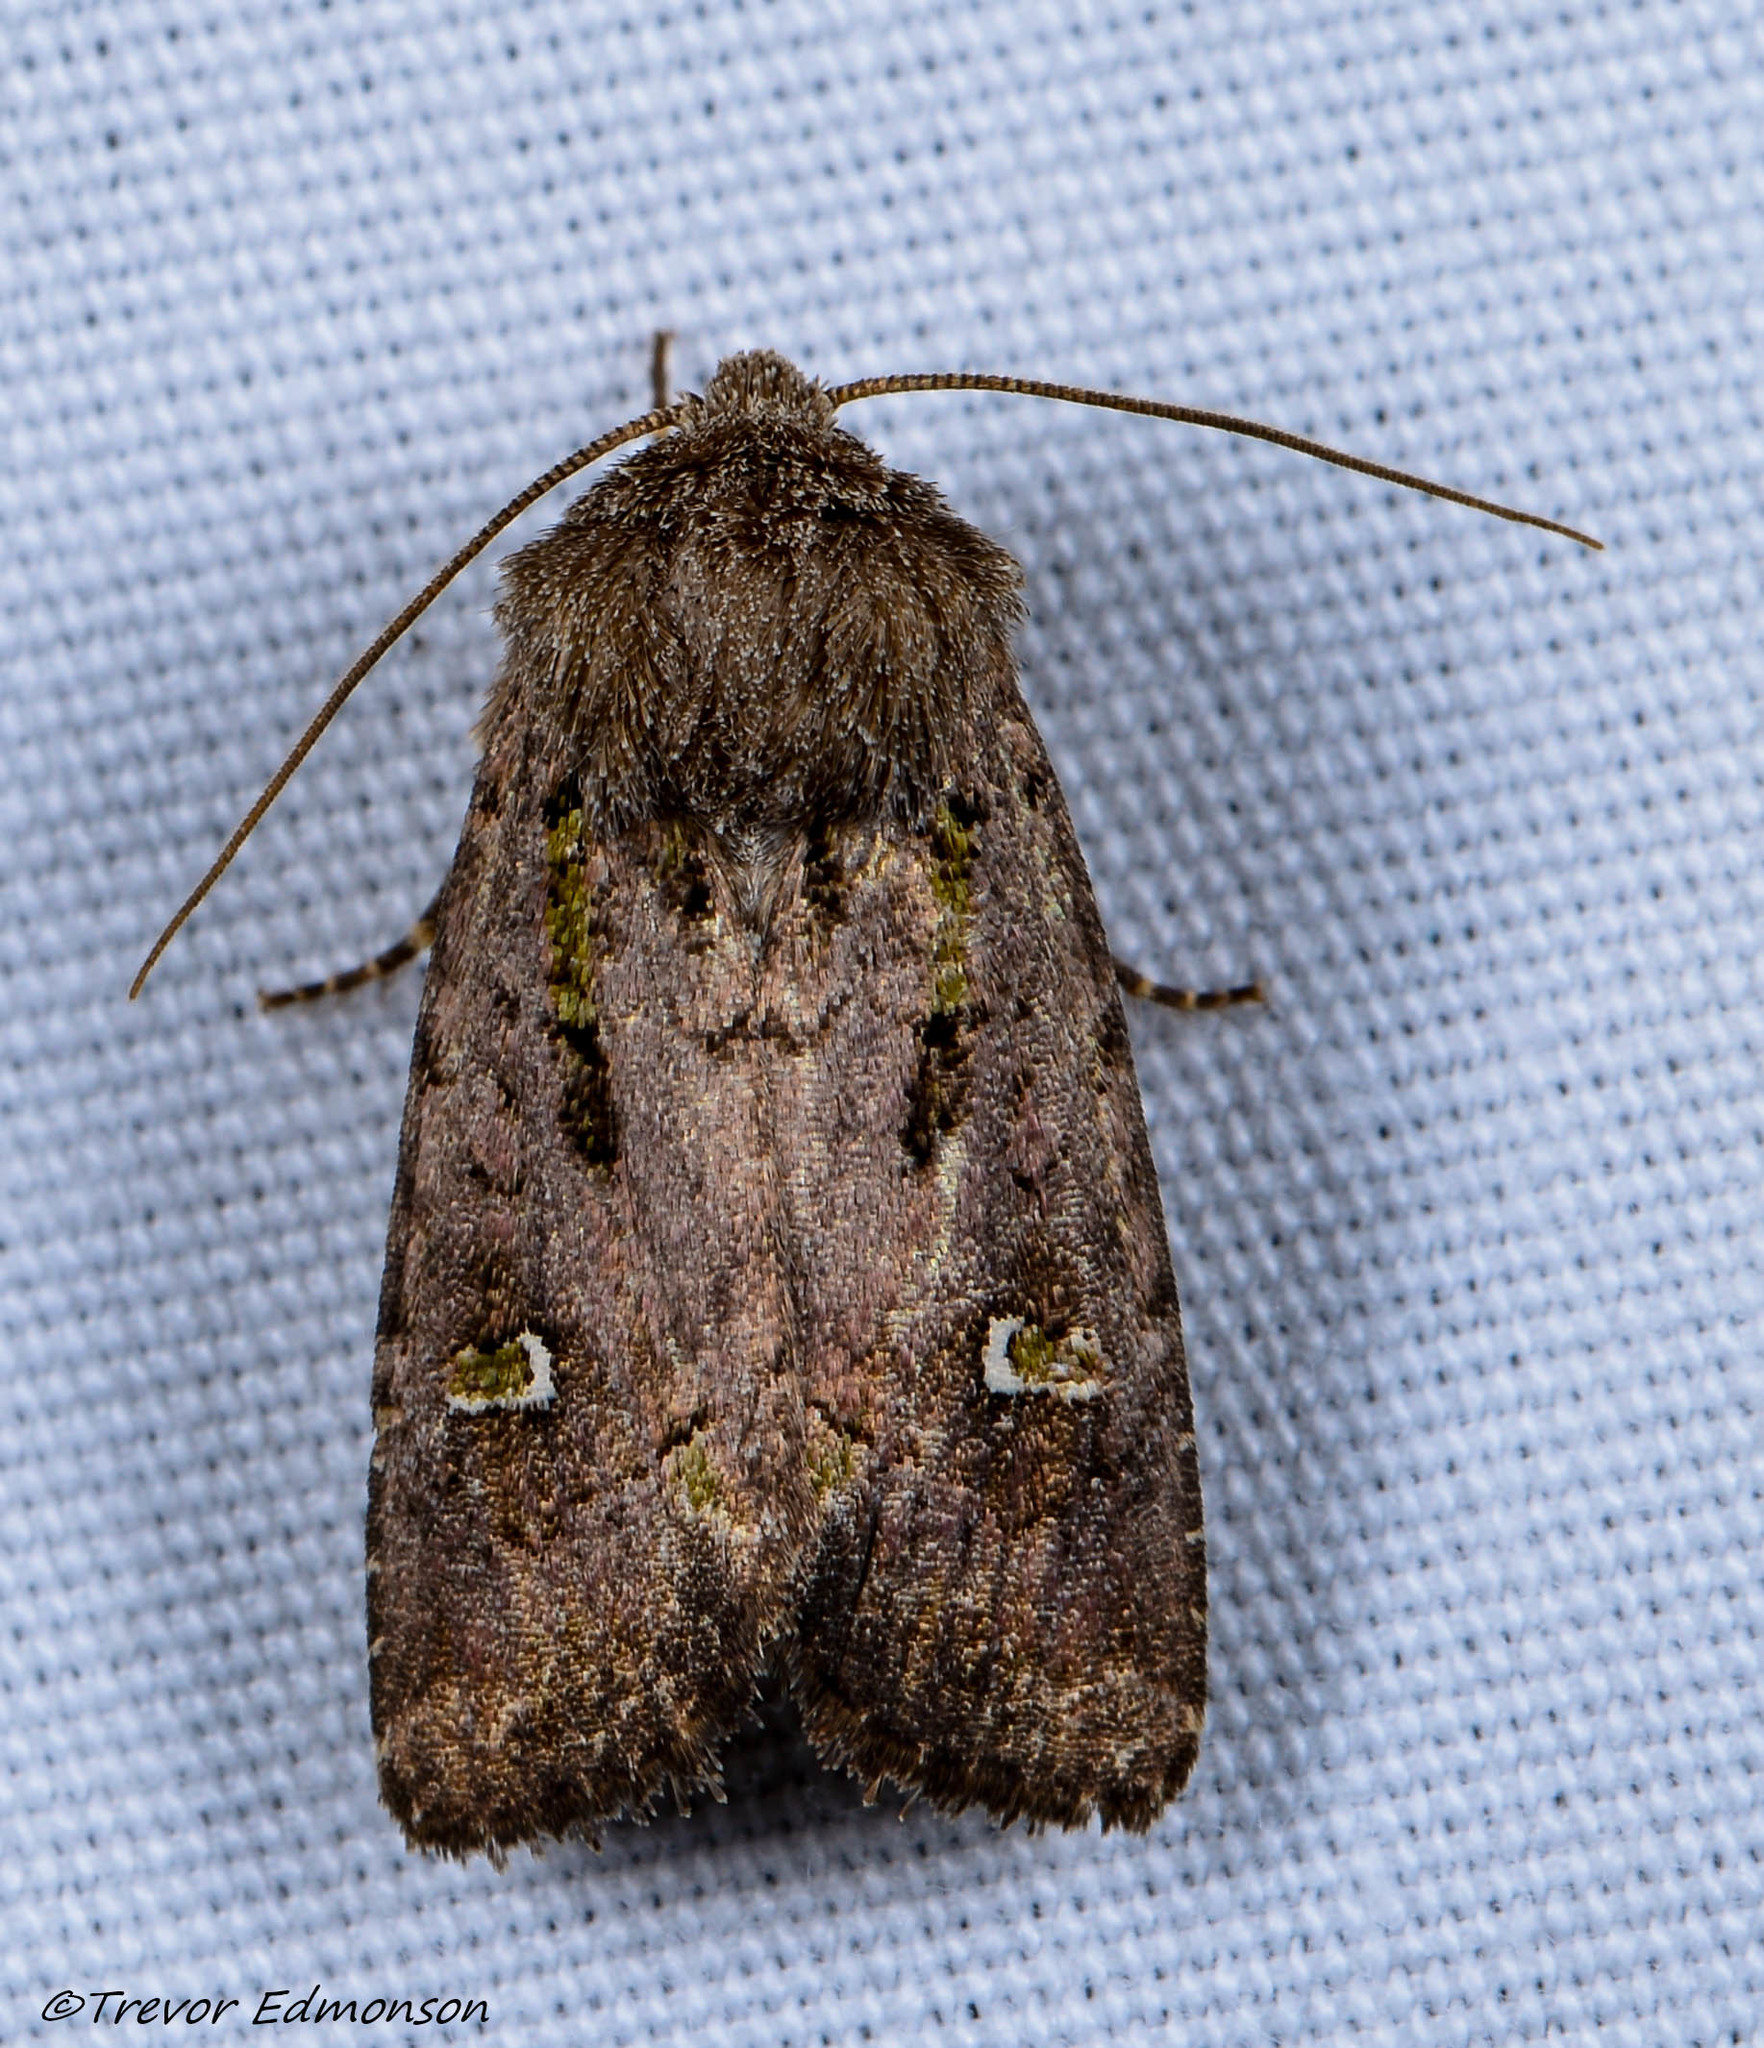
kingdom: Animalia
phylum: Arthropoda
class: Insecta
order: Lepidoptera
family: Noctuidae
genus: Lacinipolia
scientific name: Lacinipolia renigera
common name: Kidney-spotted minor
